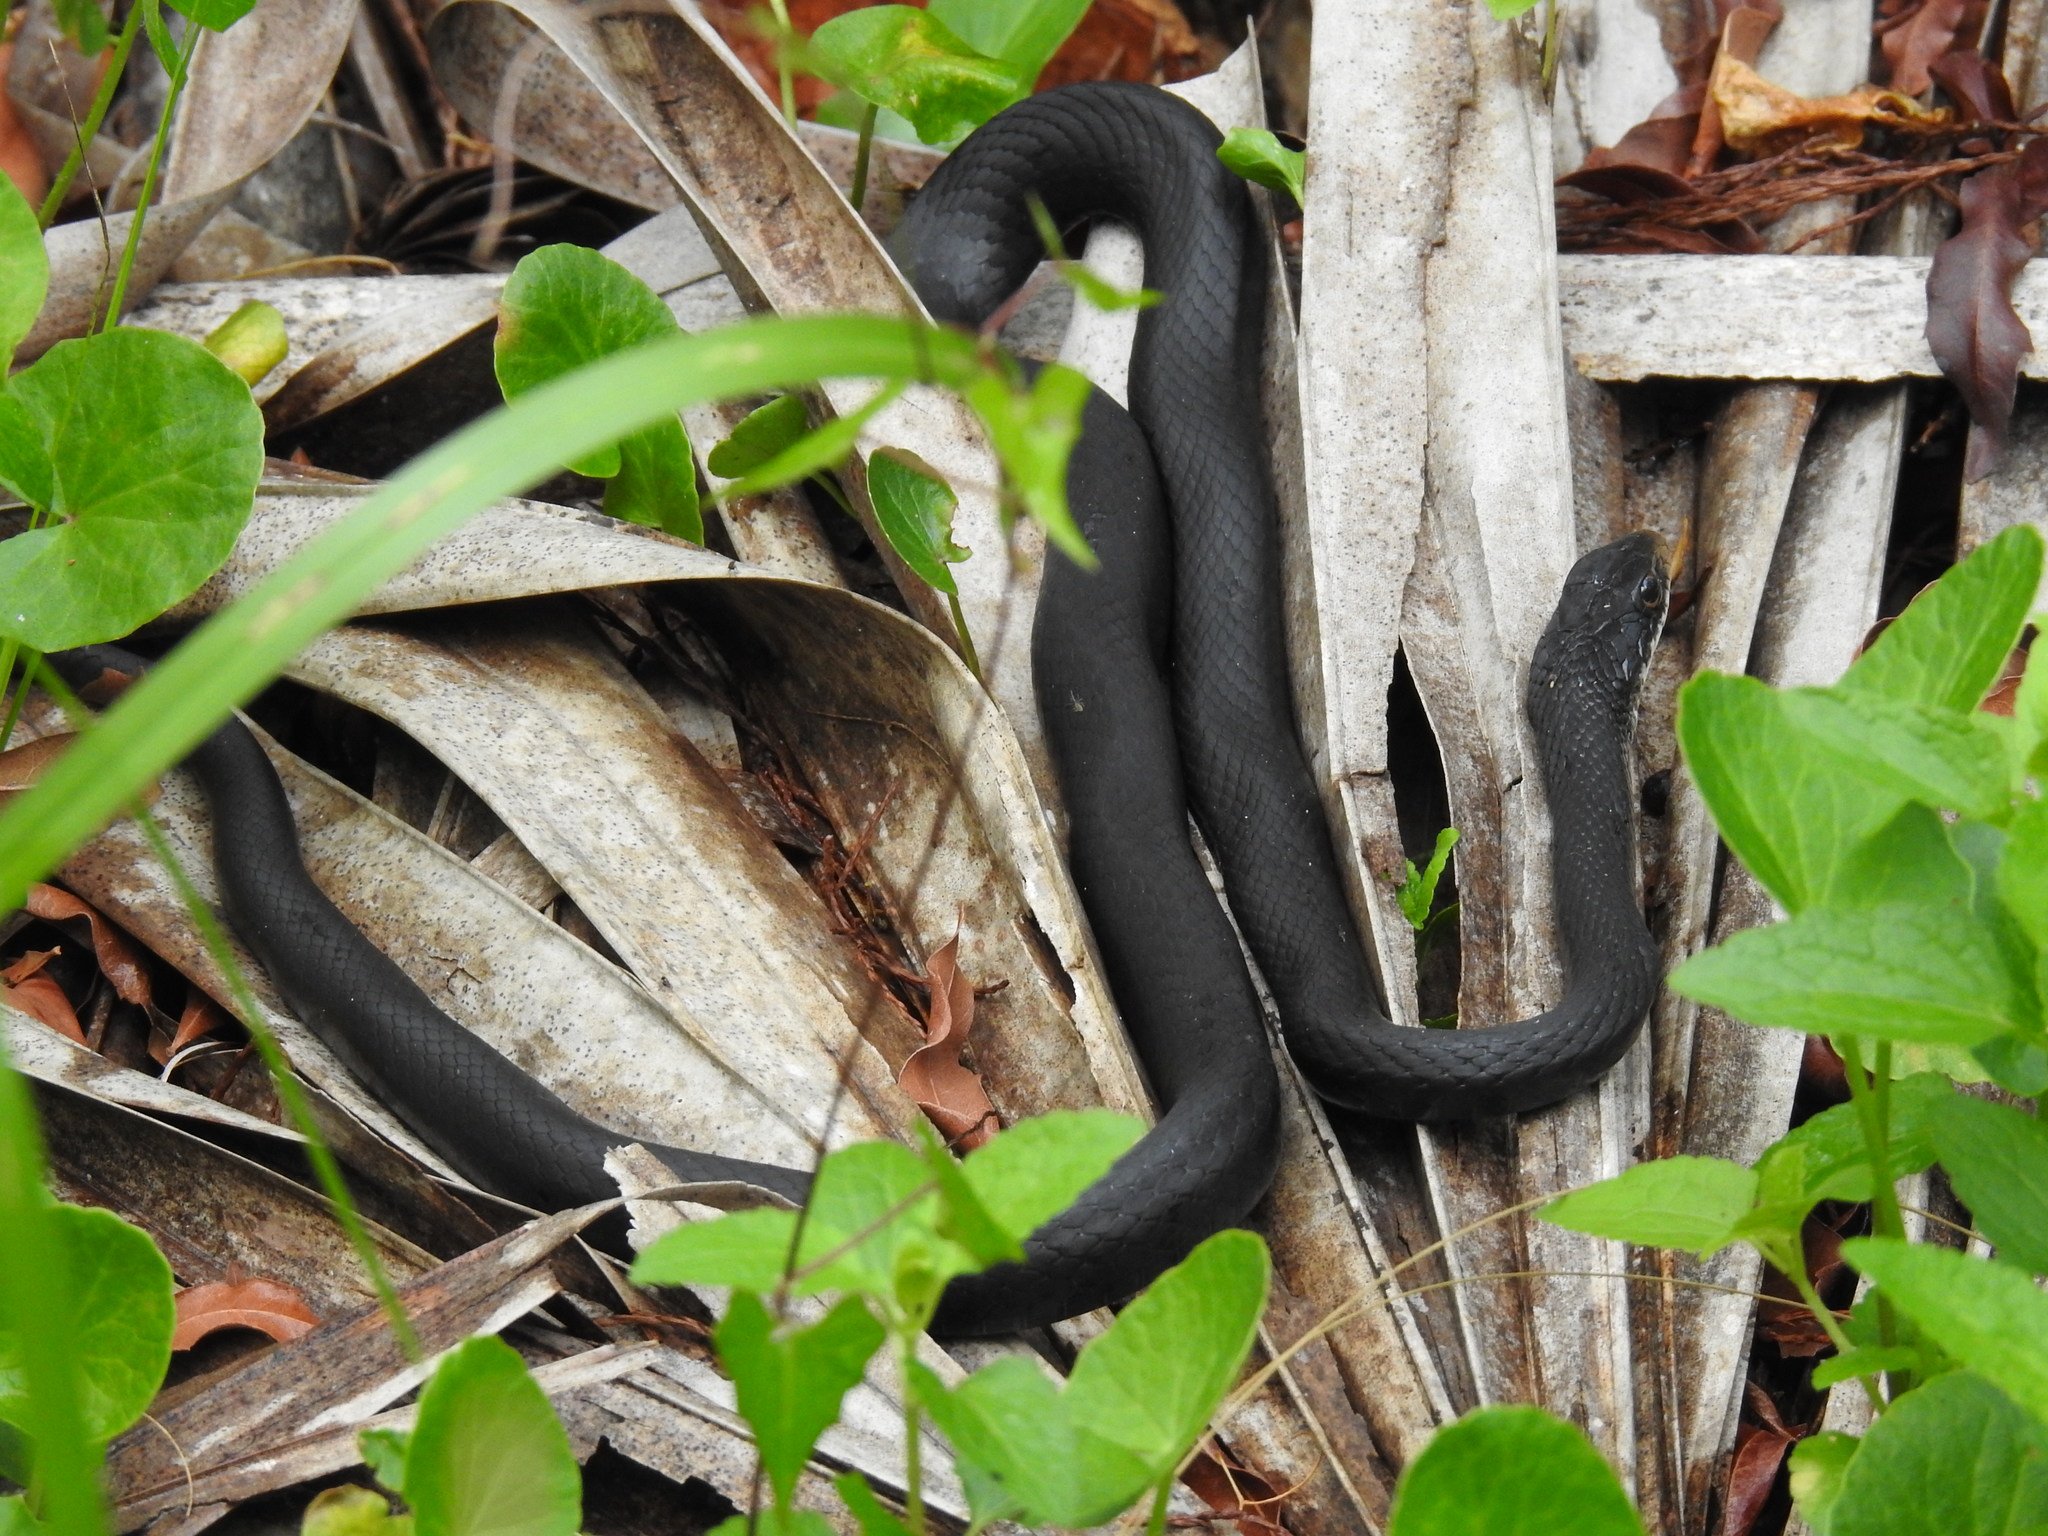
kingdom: Animalia
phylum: Chordata
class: Squamata
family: Colubridae
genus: Coluber
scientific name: Coluber constrictor
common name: Eastern racer
